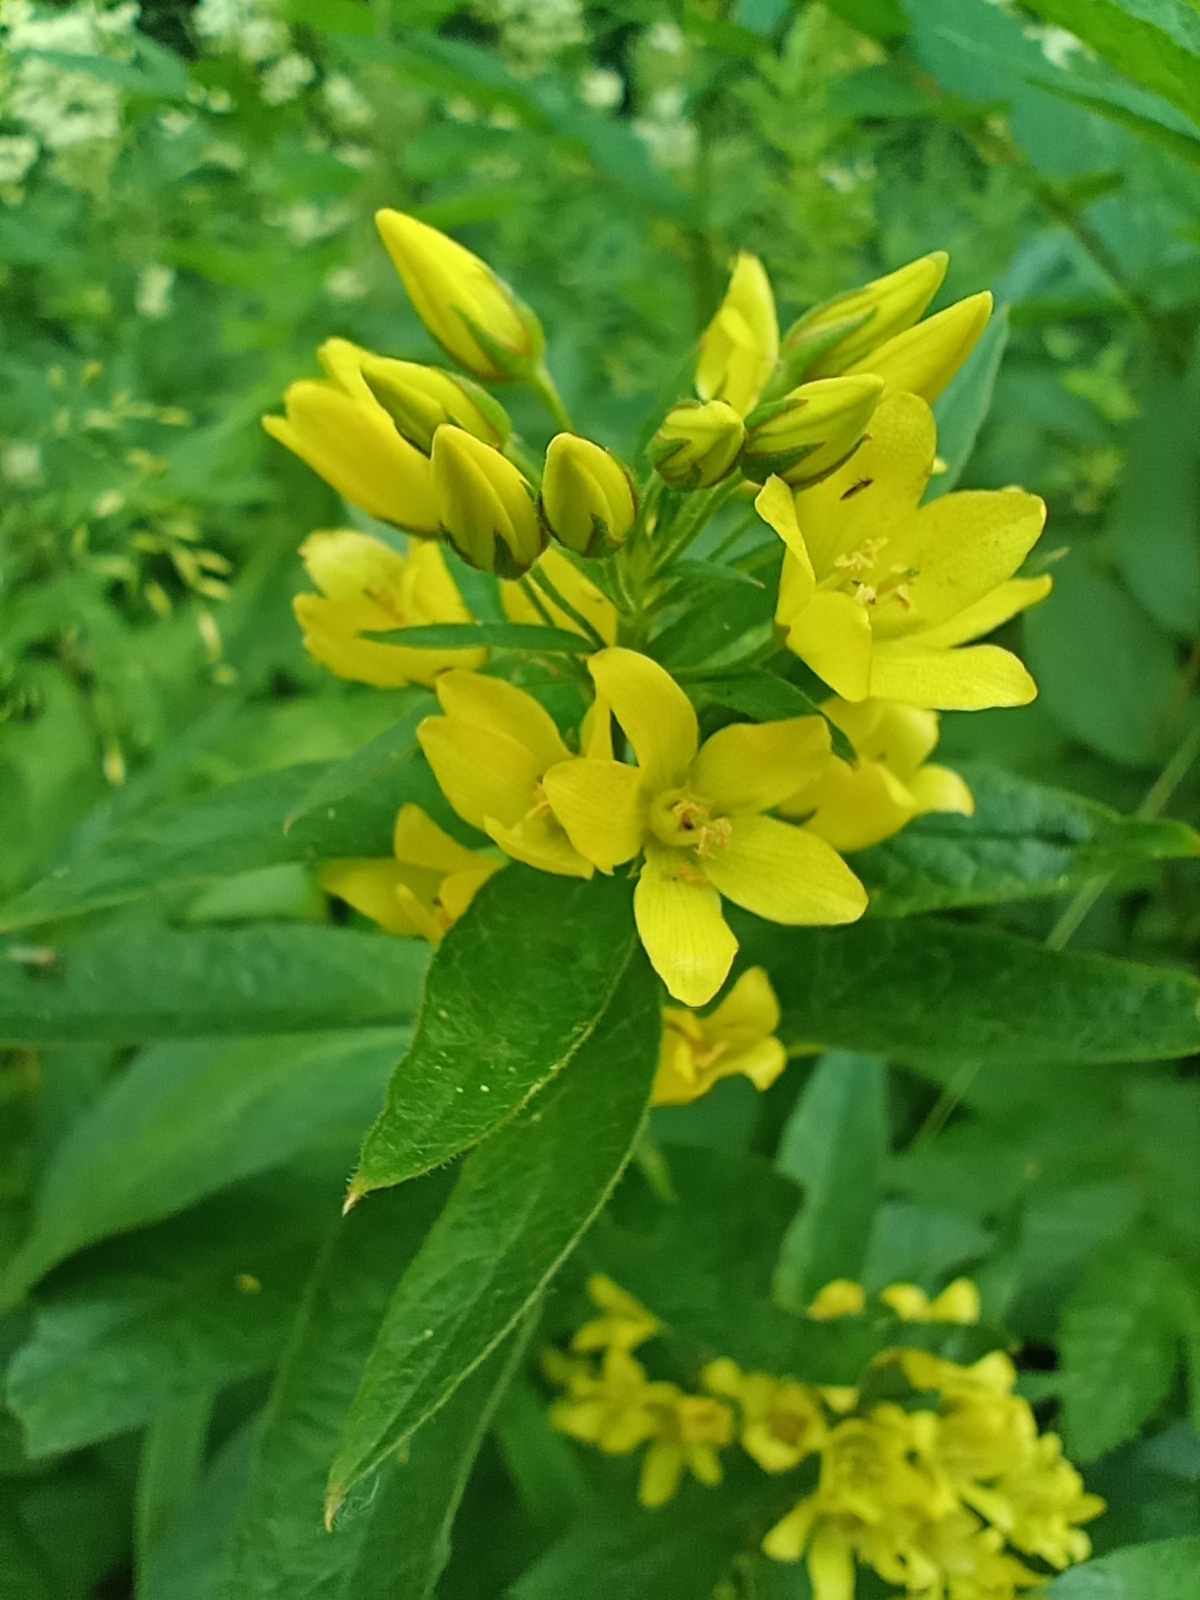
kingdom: Plantae
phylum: Tracheophyta
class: Magnoliopsida
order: Ericales
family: Primulaceae
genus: Lysimachia
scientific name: Lysimachia vulgaris
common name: Yellow loosestrife
